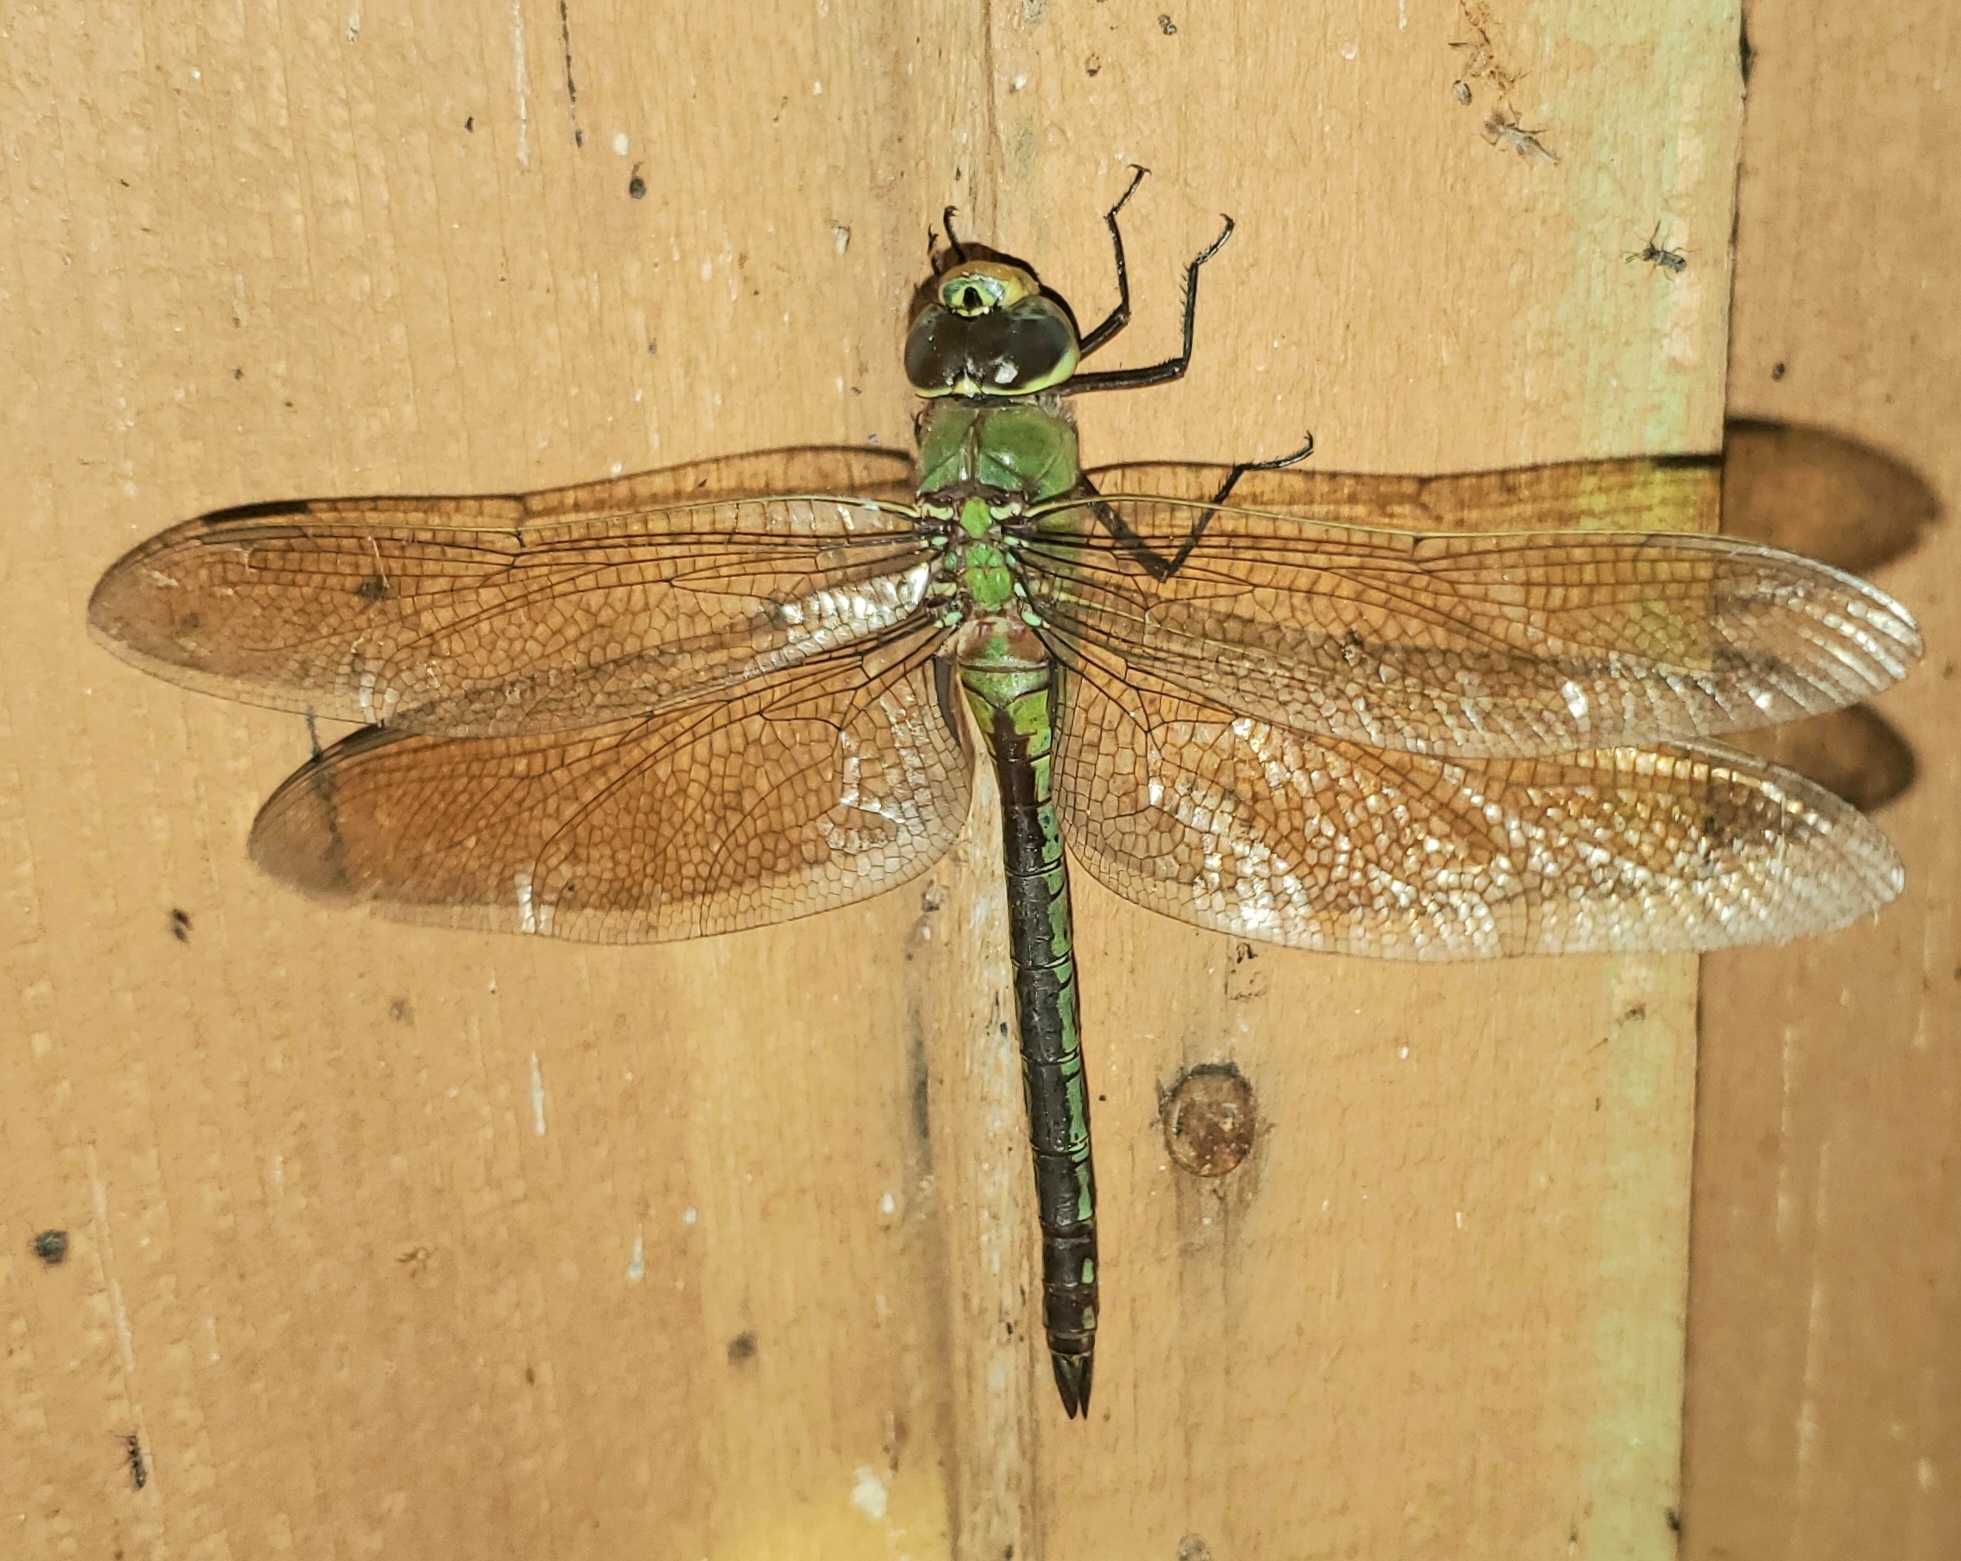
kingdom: Animalia
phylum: Arthropoda
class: Insecta
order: Odonata
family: Aeshnidae
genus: Anax
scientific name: Anax junius
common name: Common green darner
